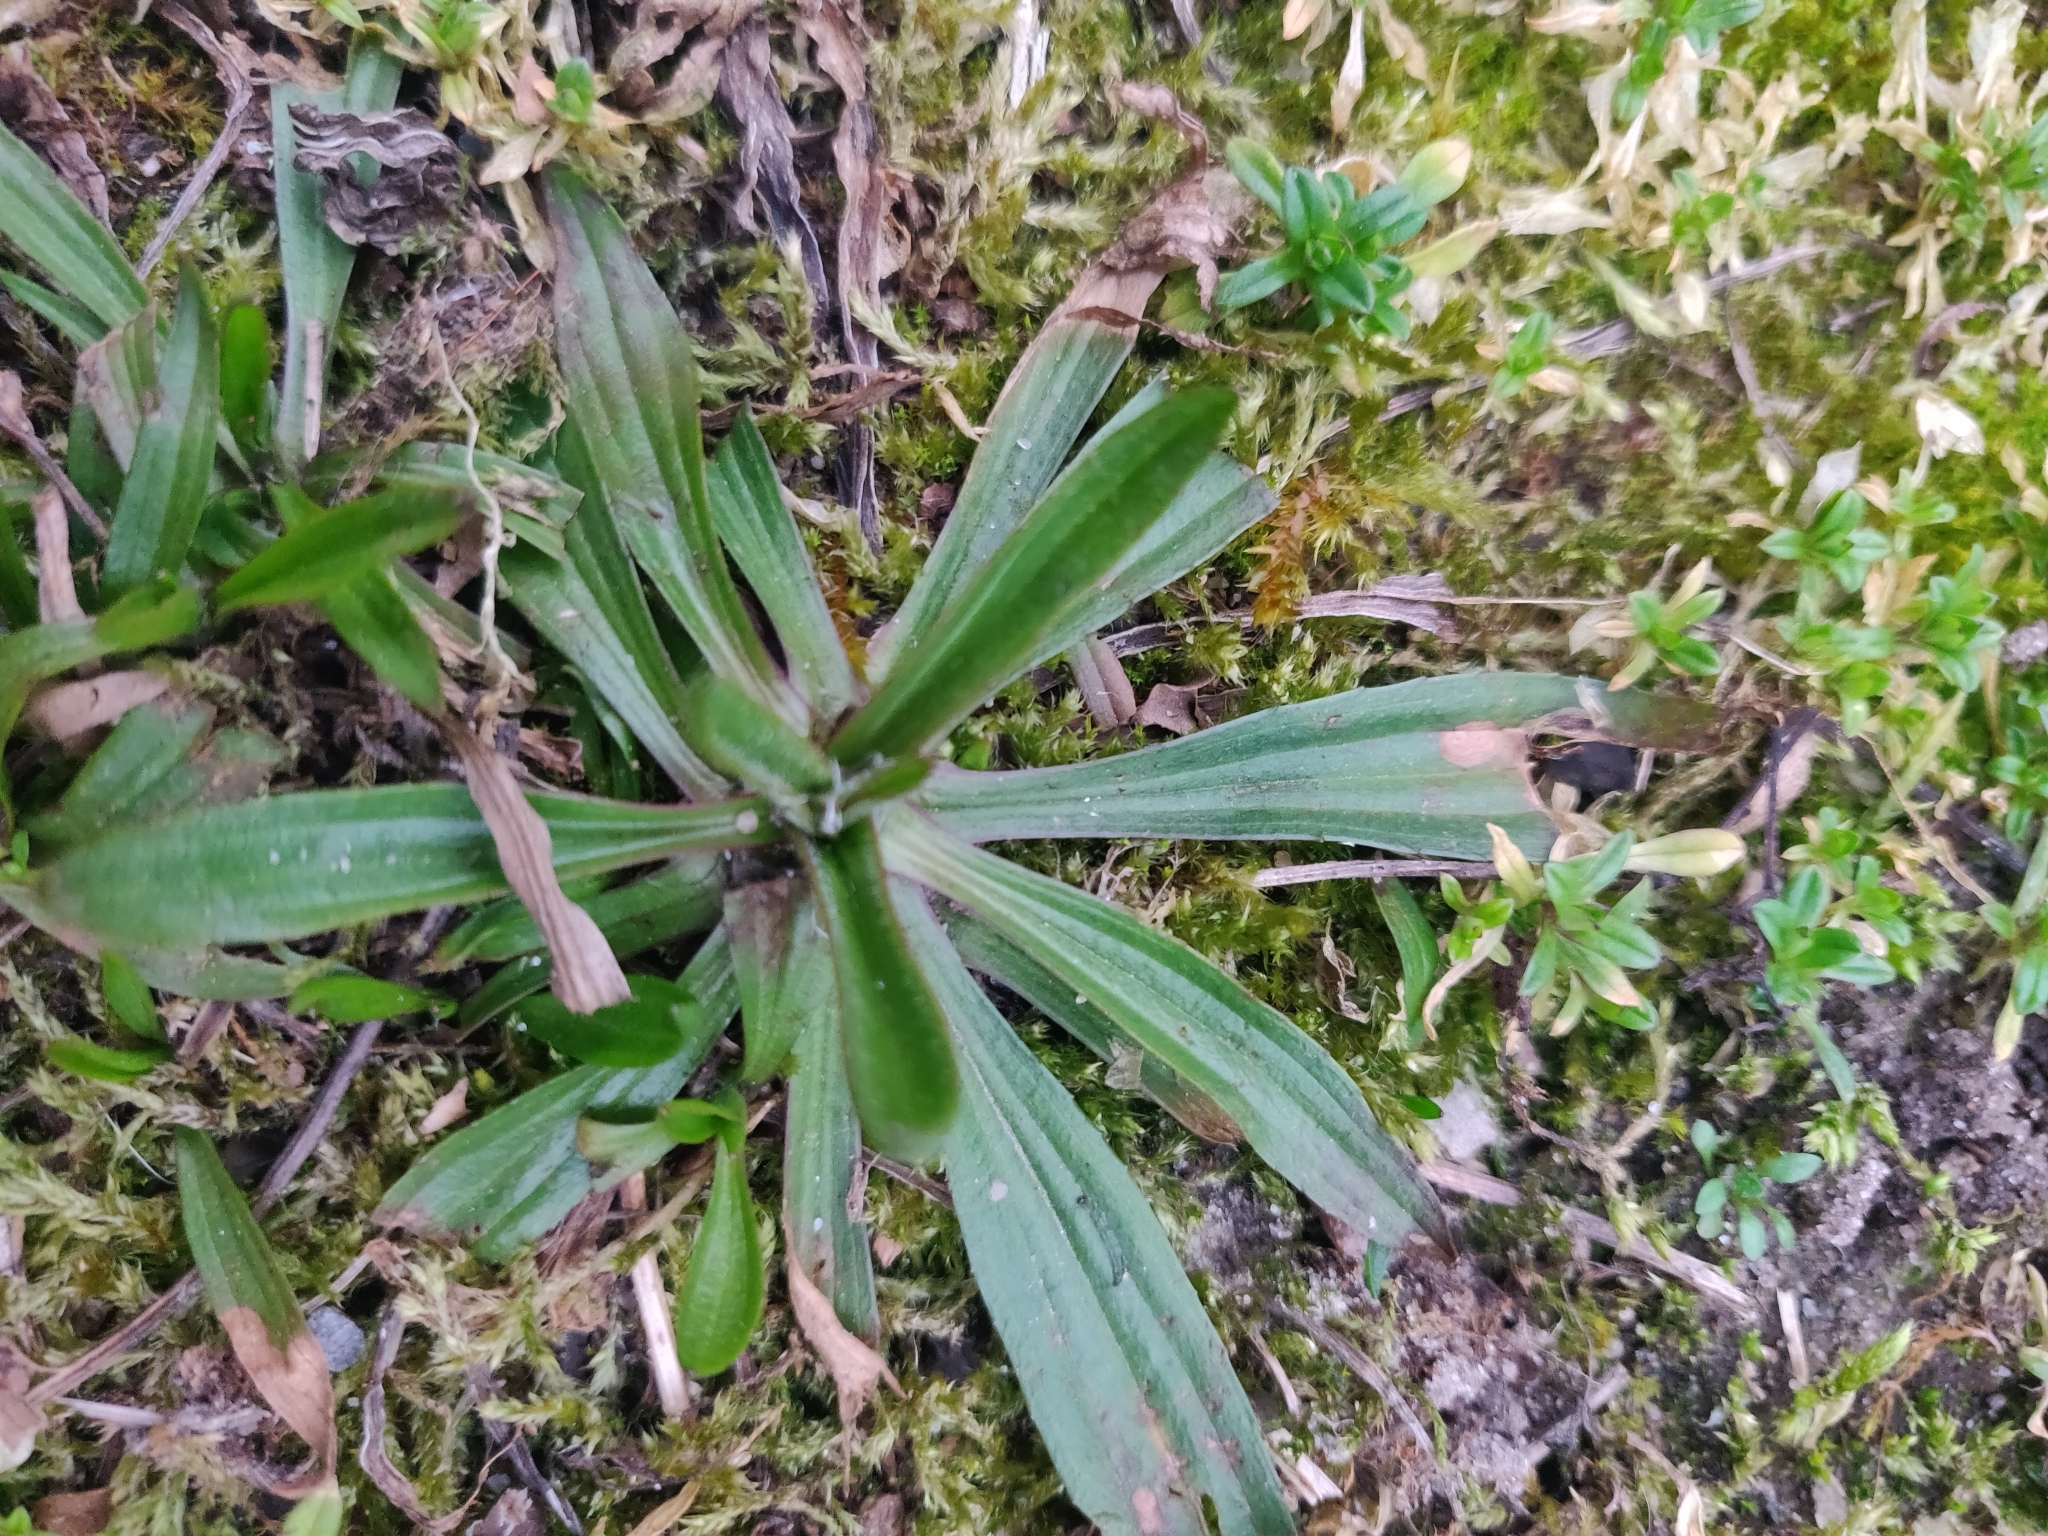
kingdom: Plantae
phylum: Tracheophyta
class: Magnoliopsida
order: Lamiales
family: Plantaginaceae
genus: Plantago
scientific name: Plantago lanceolata
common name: Ribwort plantain
